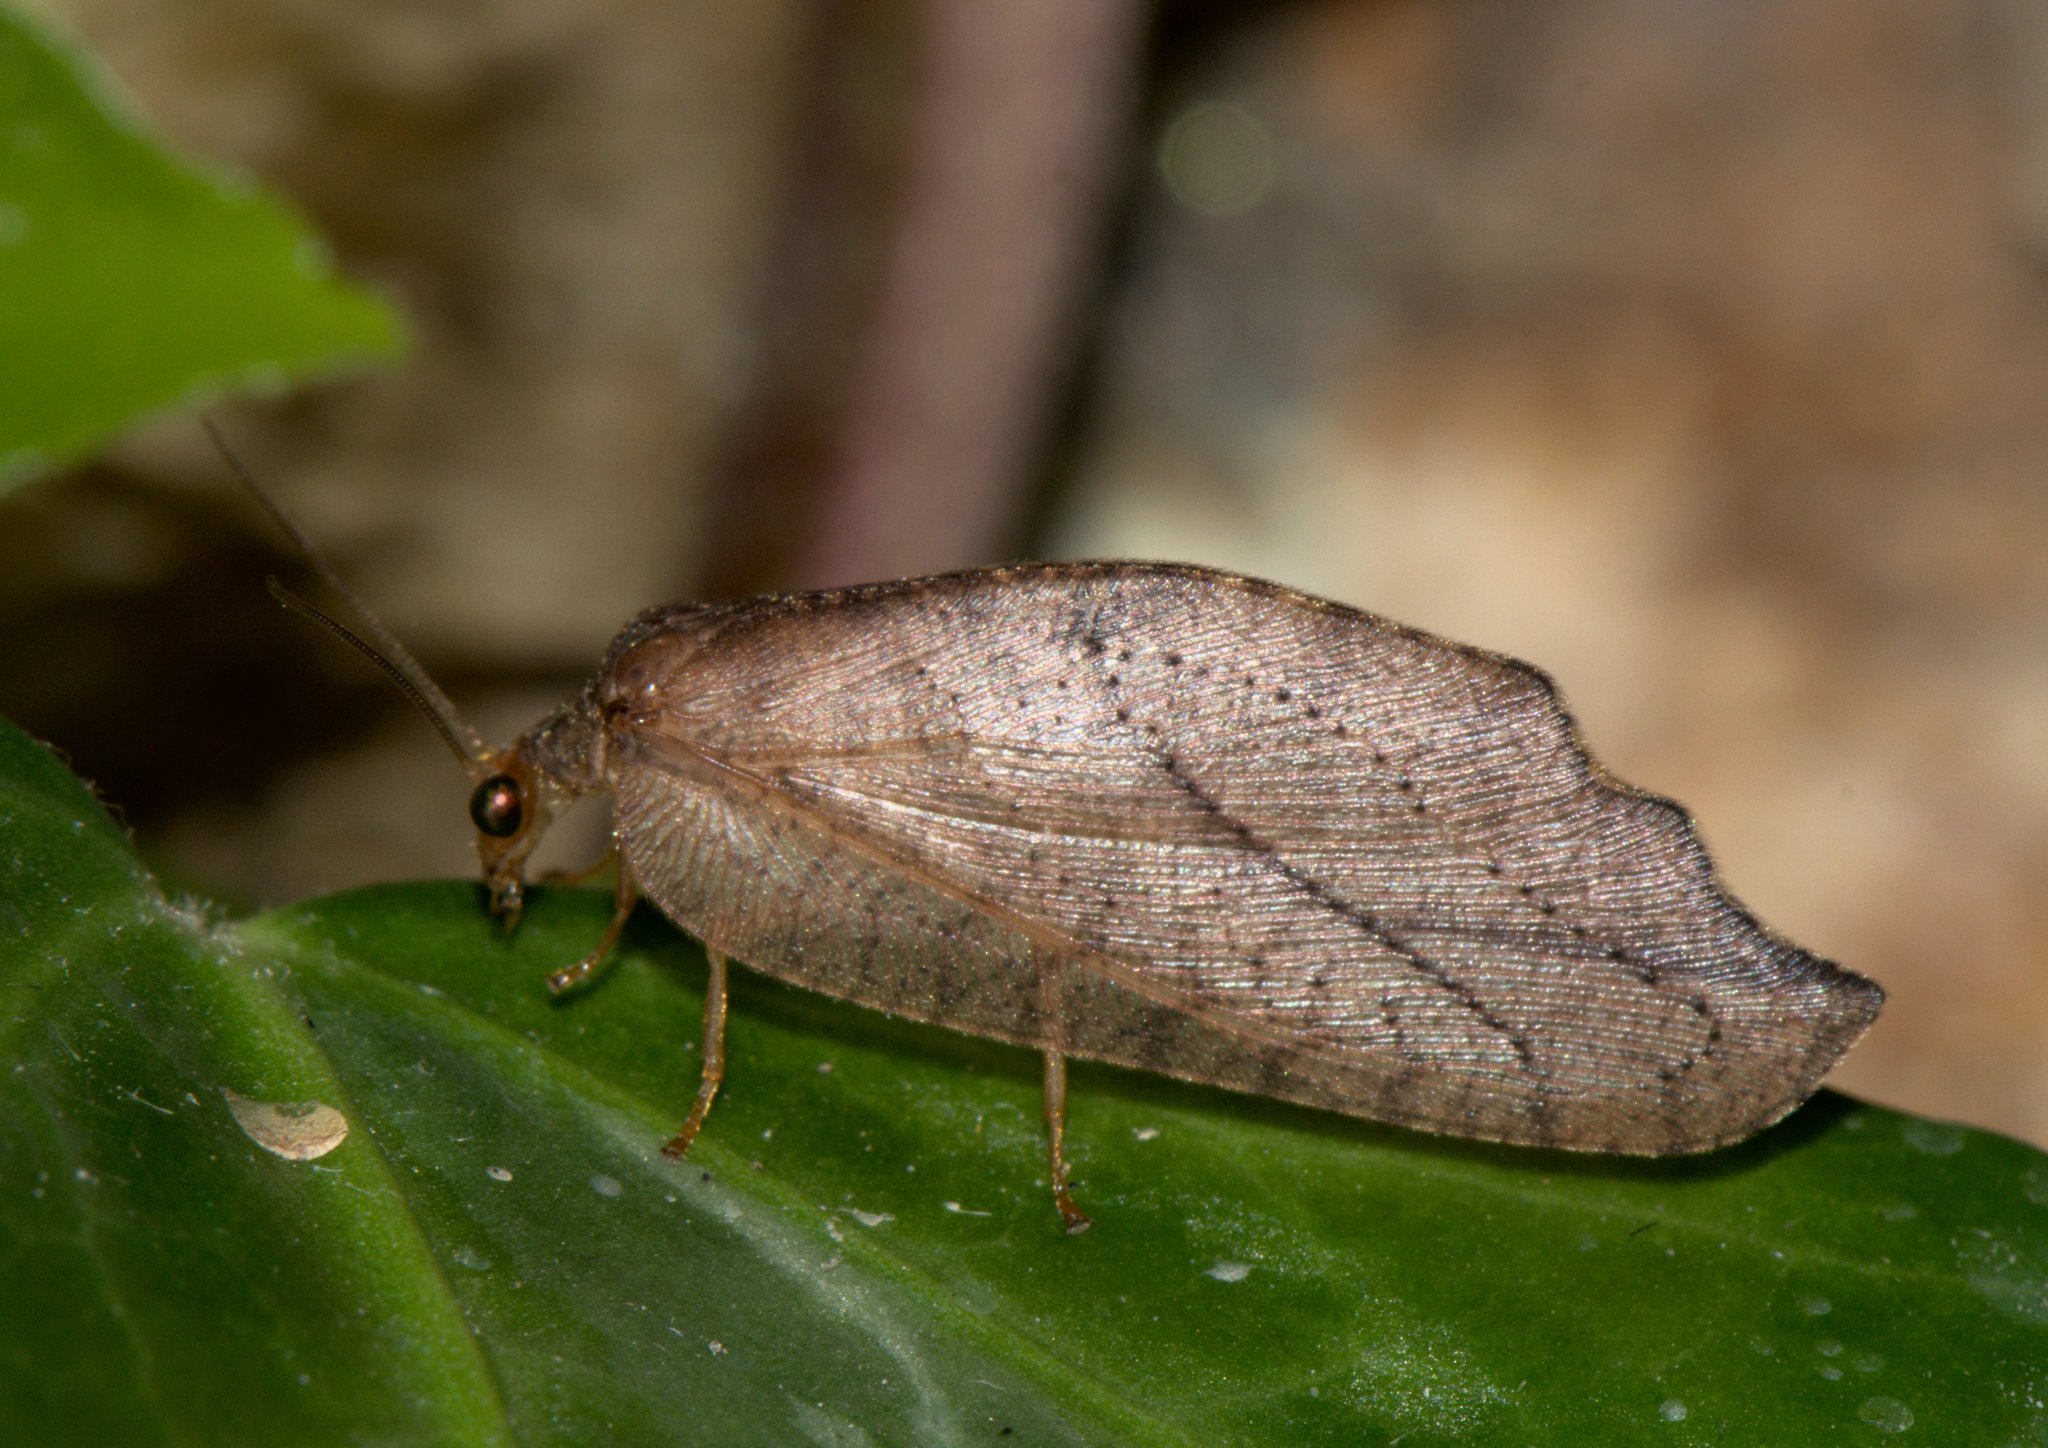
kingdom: Animalia
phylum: Arthropoda
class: Insecta
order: Neuroptera
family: Hemerobiidae
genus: Drepanepteryx
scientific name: Drepanepteryx falculoides
